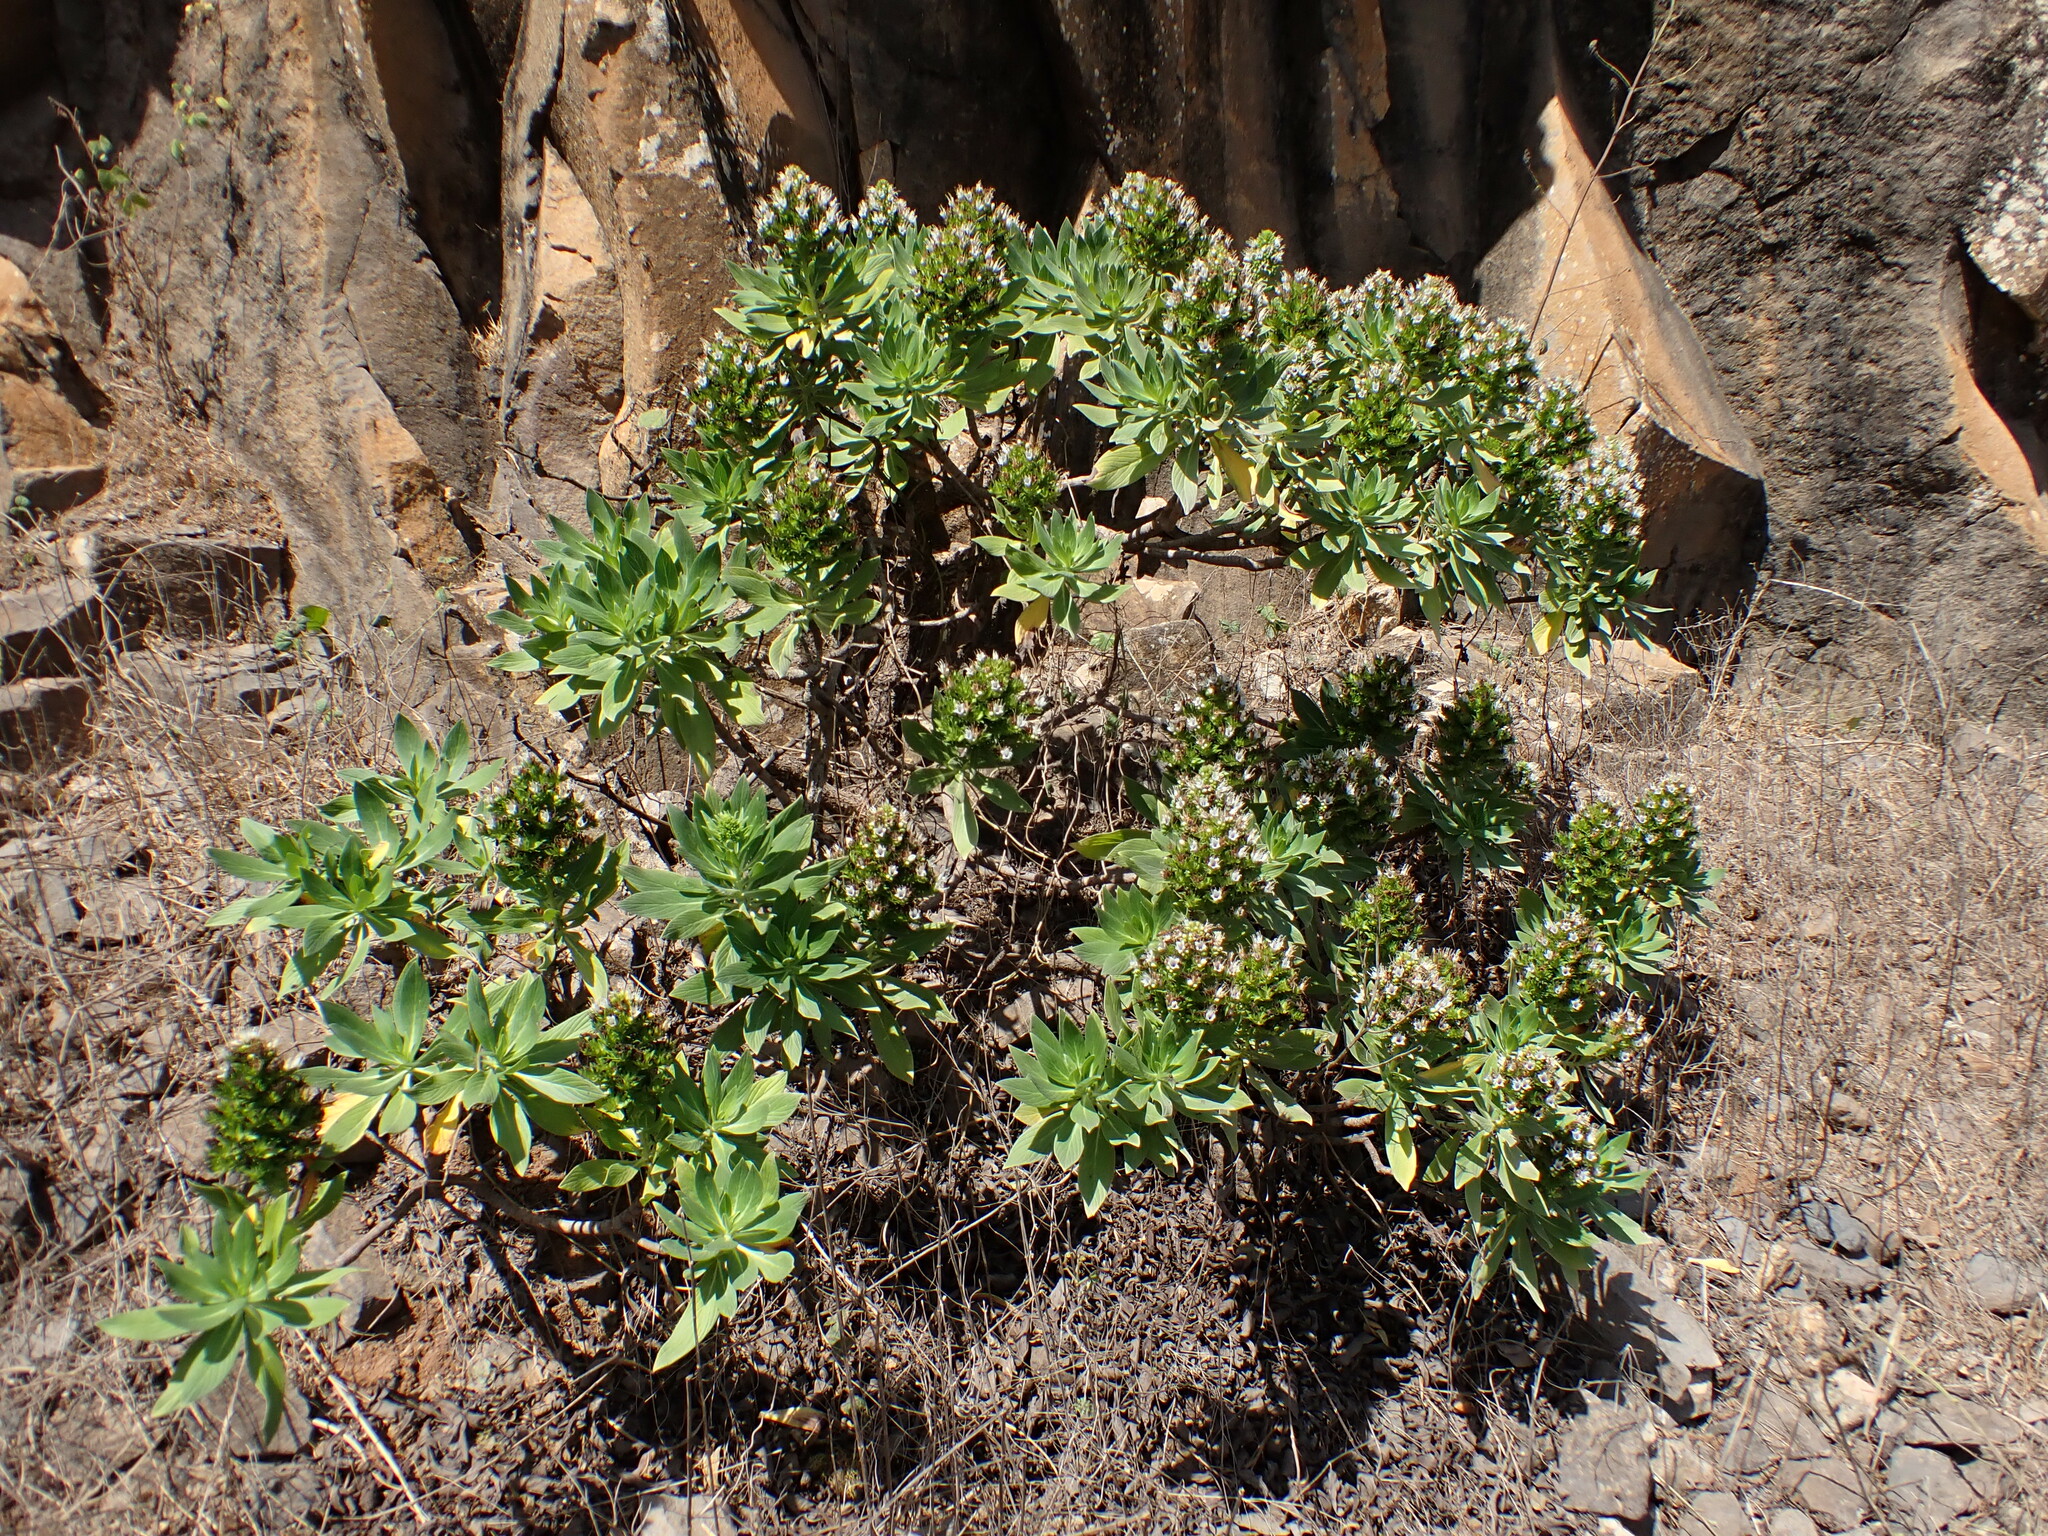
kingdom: Plantae
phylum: Tracheophyta
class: Magnoliopsida
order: Boraginales
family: Boraginaceae
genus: Echium
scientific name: Echium hypertropicum
